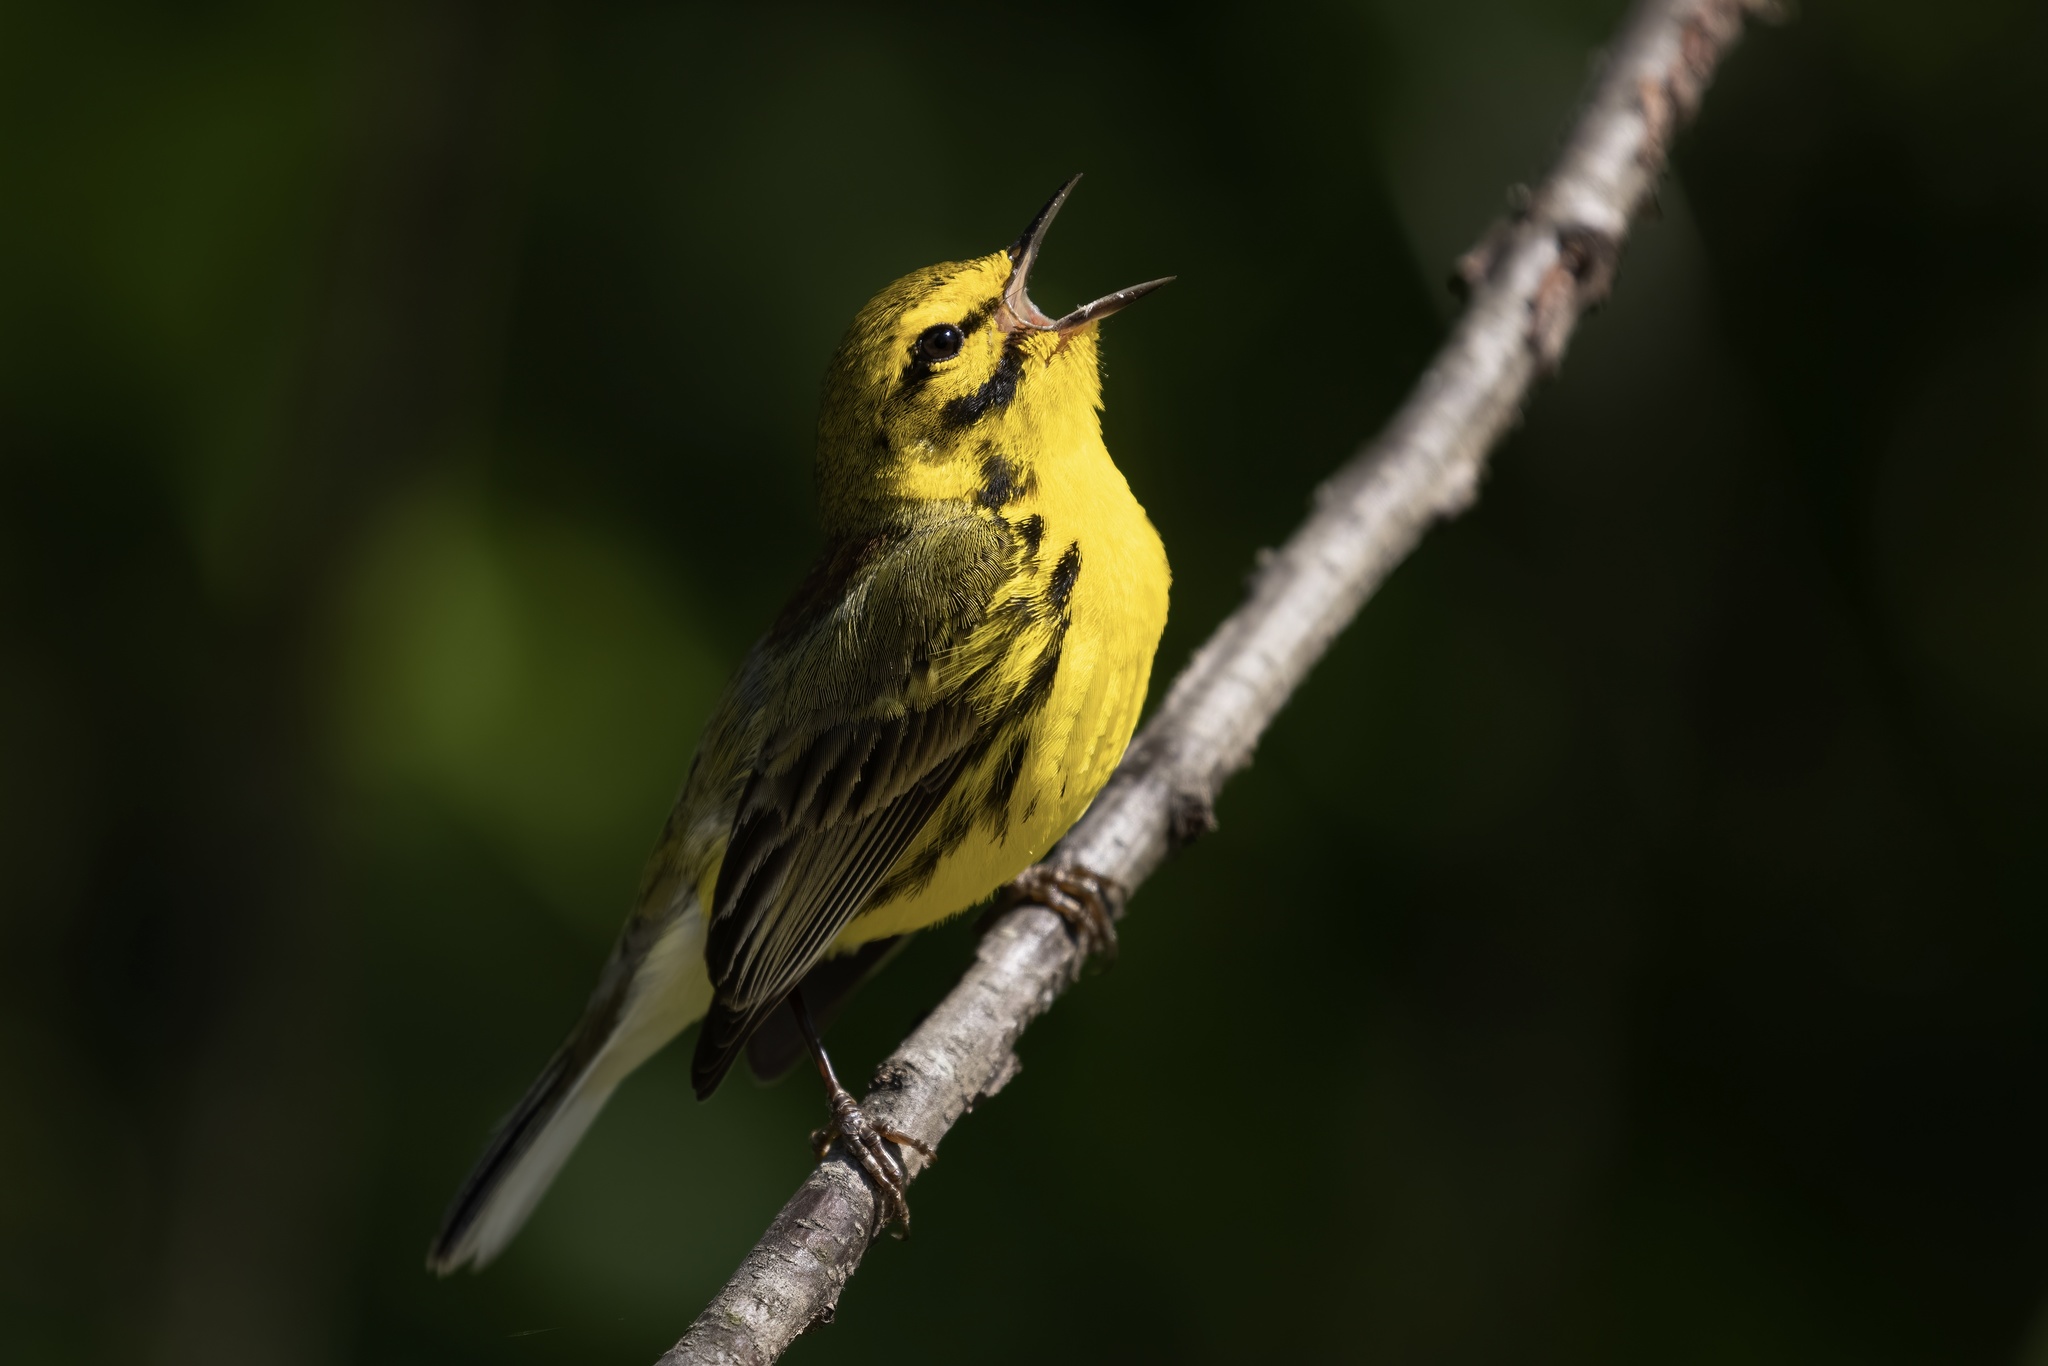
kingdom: Animalia
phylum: Chordata
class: Aves
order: Passeriformes
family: Parulidae
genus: Setophaga
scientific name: Setophaga discolor
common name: Prairie warbler
